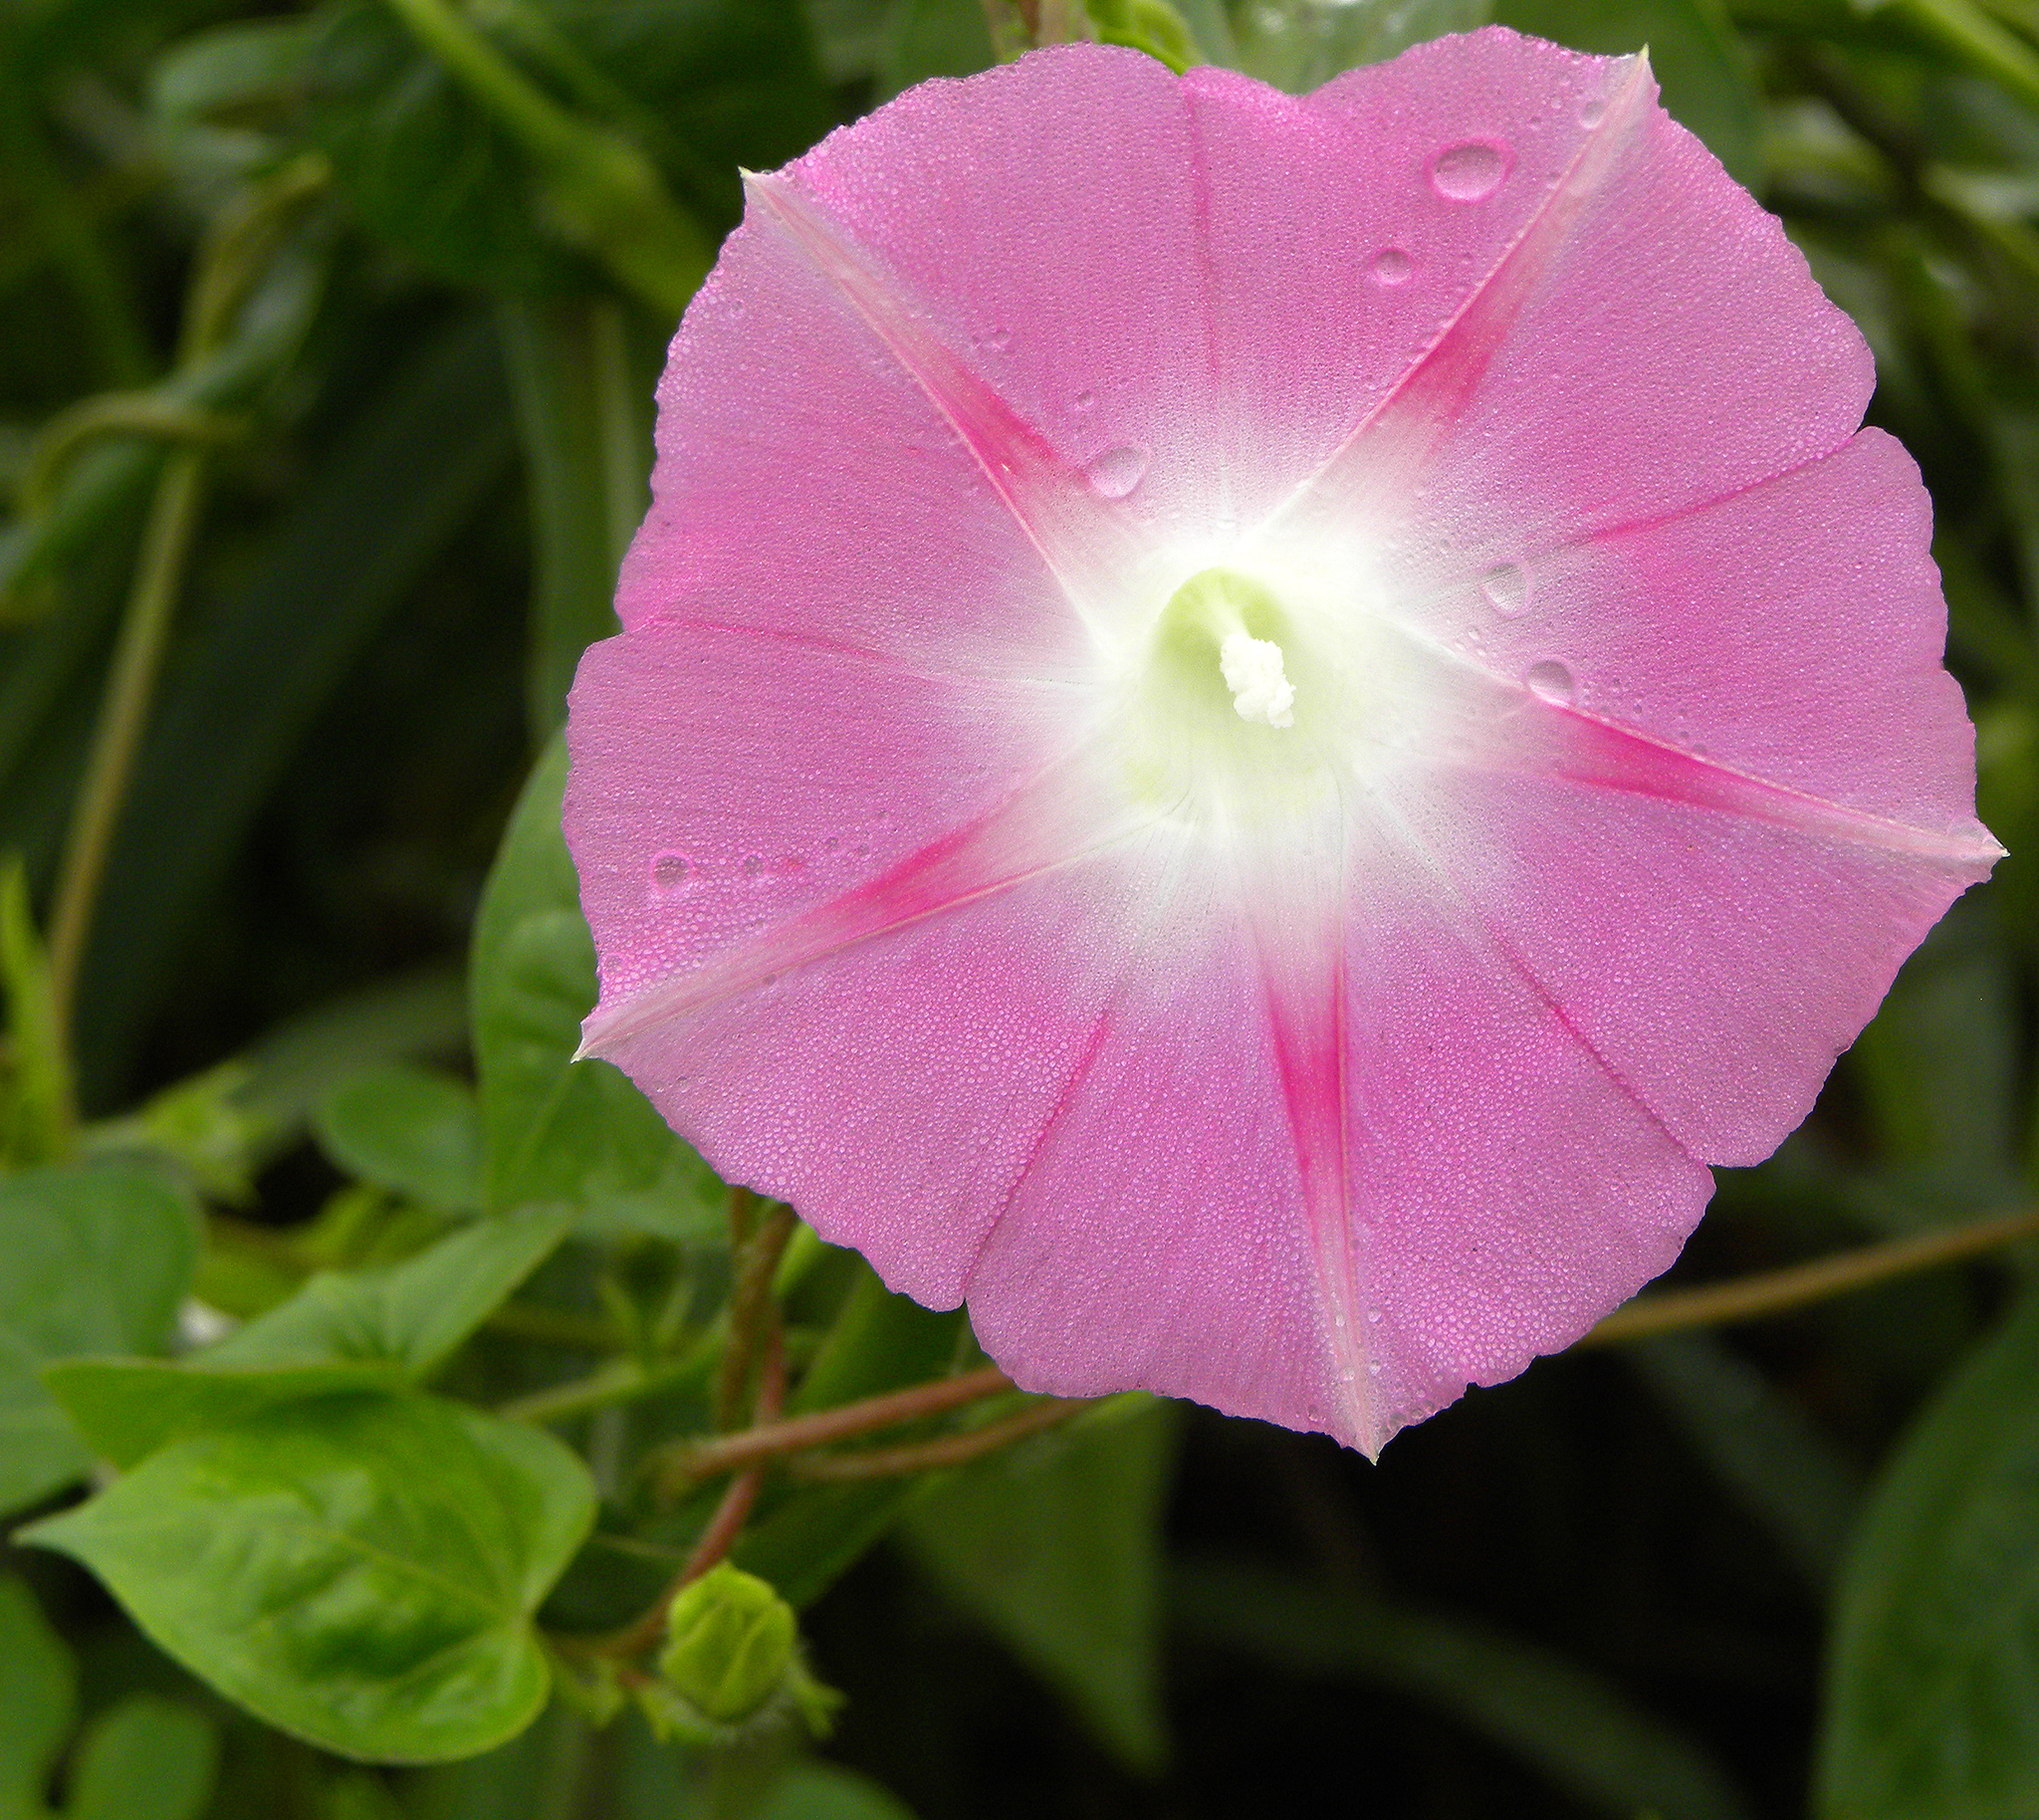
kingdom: Plantae
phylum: Tracheophyta
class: Magnoliopsida
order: Solanales
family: Convolvulaceae
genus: Ipomoea
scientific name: Ipomoea purpurea
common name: Common morning-glory
